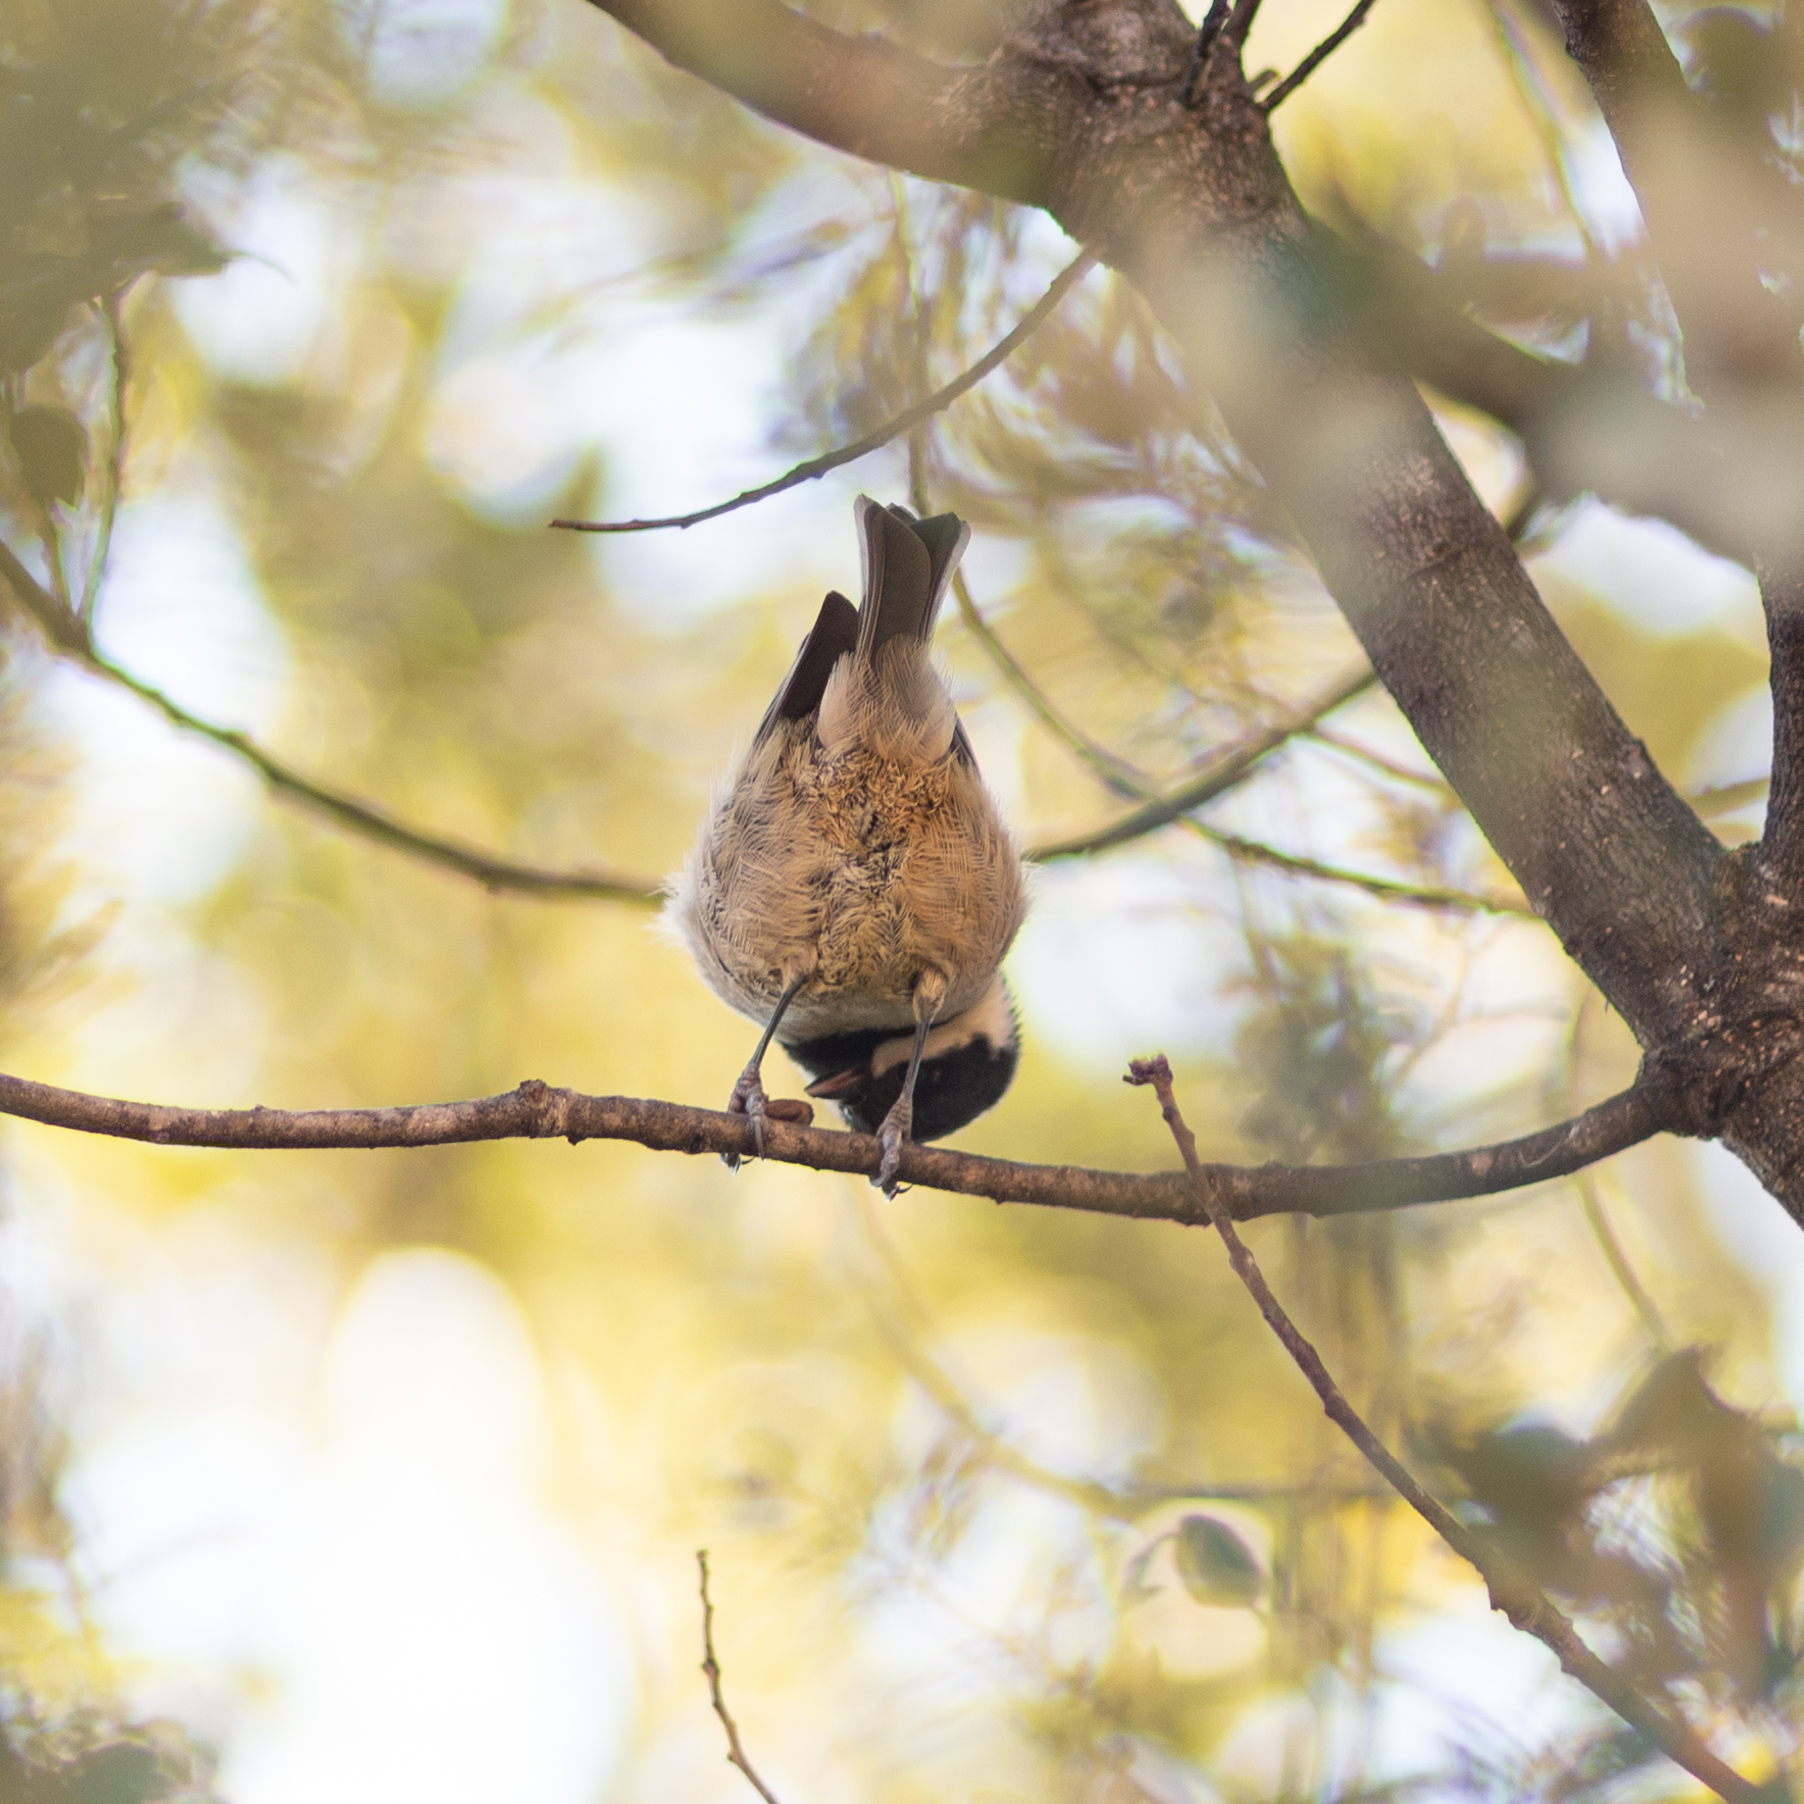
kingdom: Animalia
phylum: Chordata
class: Aves
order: Passeriformes
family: Paridae
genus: Periparus
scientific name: Periparus ater
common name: Coal tit
